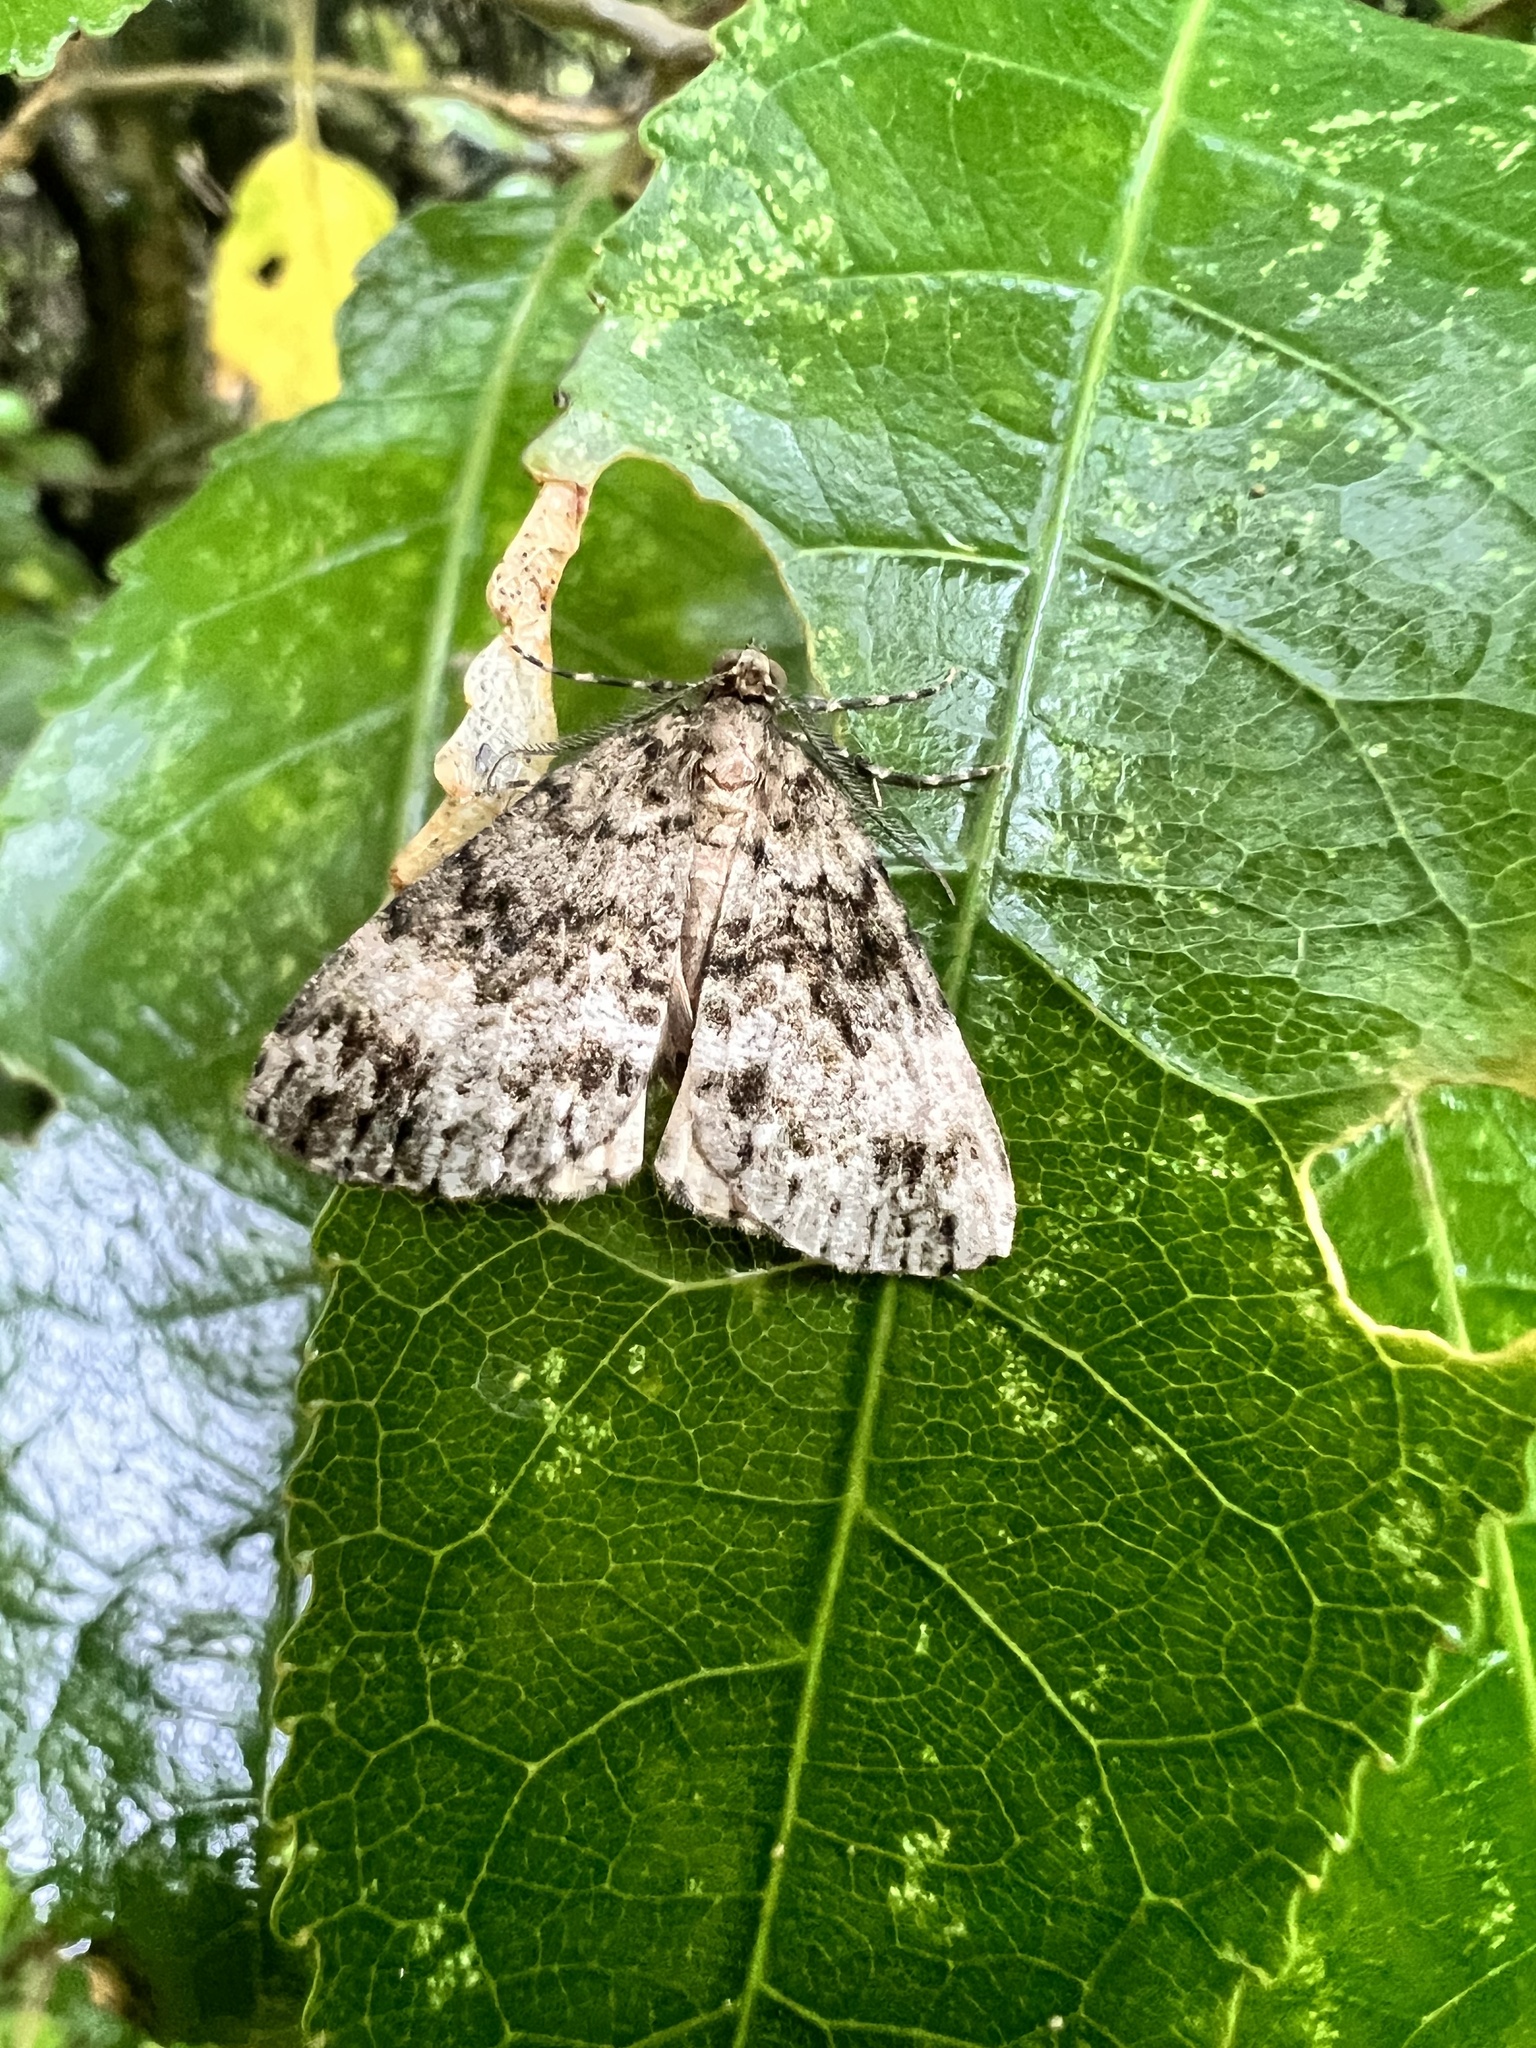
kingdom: Animalia
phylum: Arthropoda
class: Insecta
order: Lepidoptera
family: Geometridae
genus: Pseudocoremia
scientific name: Pseudocoremia indistincta
